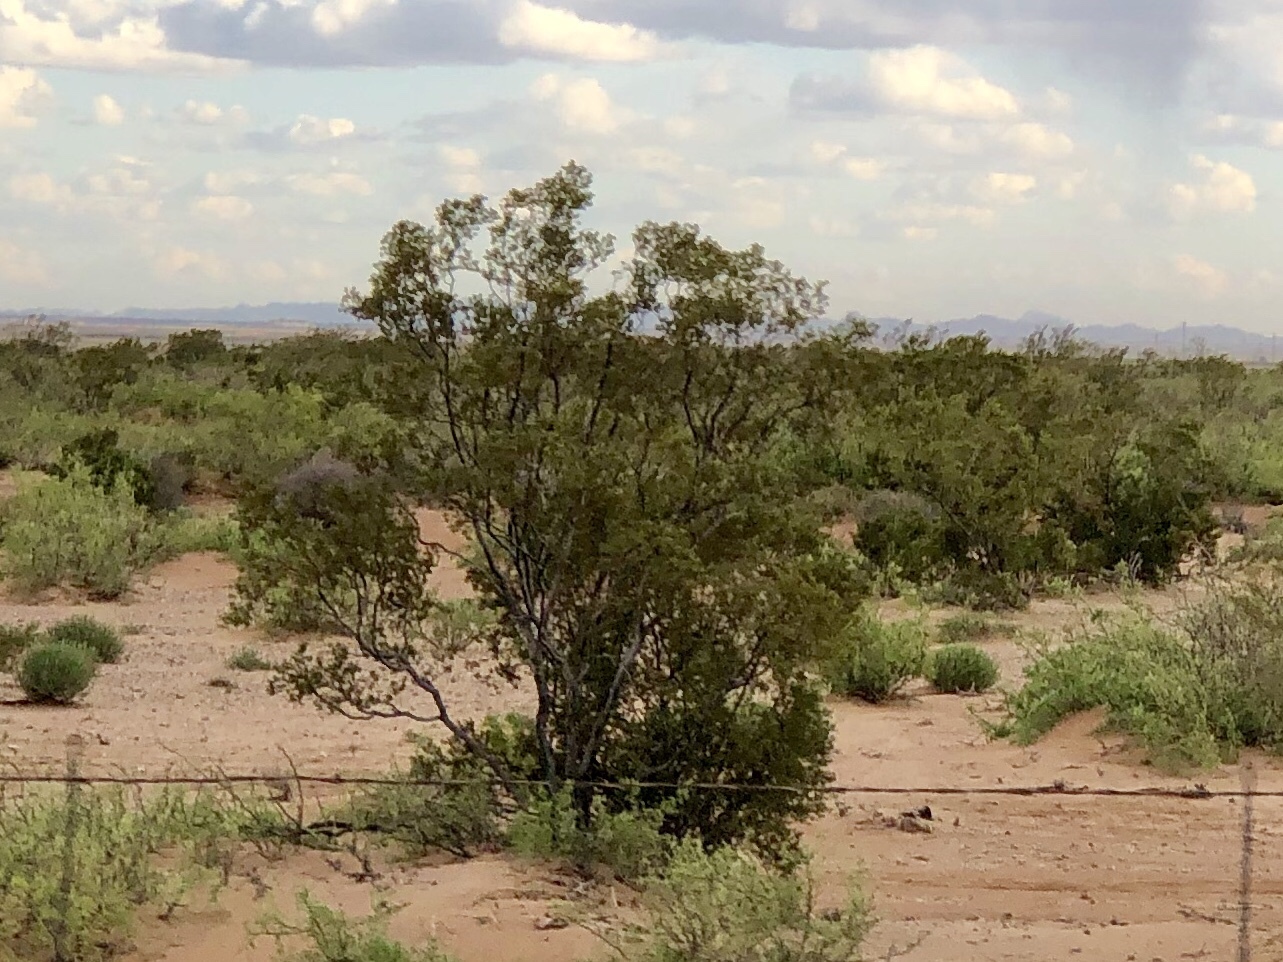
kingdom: Plantae
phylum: Tracheophyta
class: Magnoliopsida
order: Zygophyllales
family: Zygophyllaceae
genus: Larrea
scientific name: Larrea tridentata
